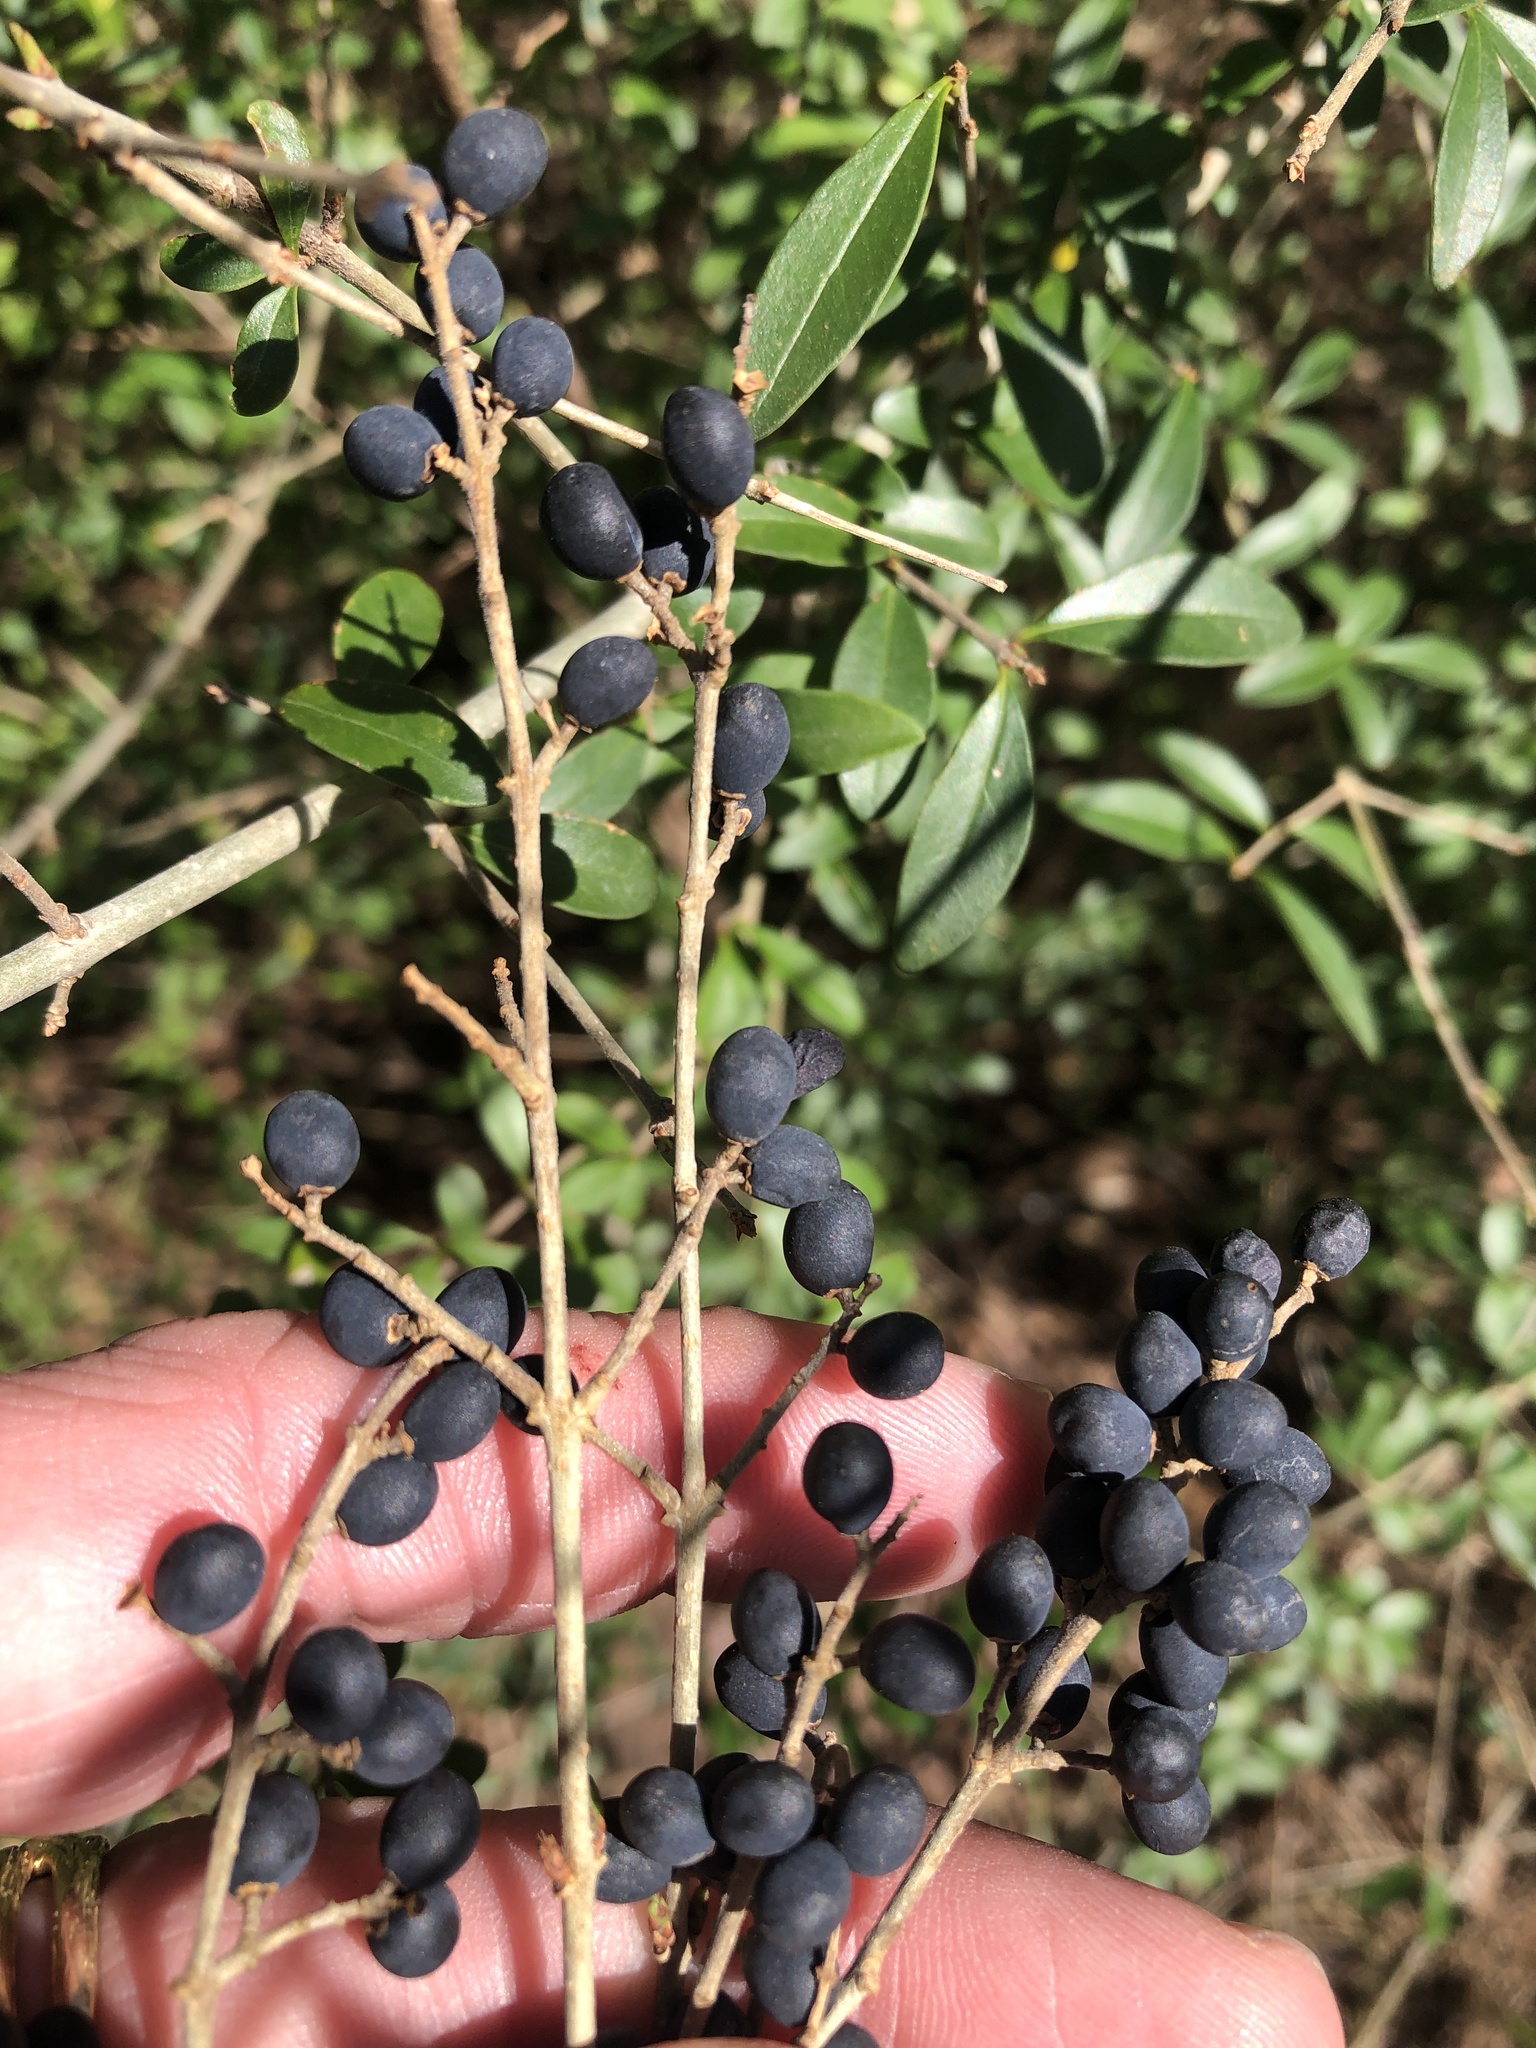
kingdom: Plantae
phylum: Tracheophyta
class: Magnoliopsida
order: Lamiales
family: Oleaceae
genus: Ligustrum
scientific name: Ligustrum quihoui
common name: Waxyleaf privet
